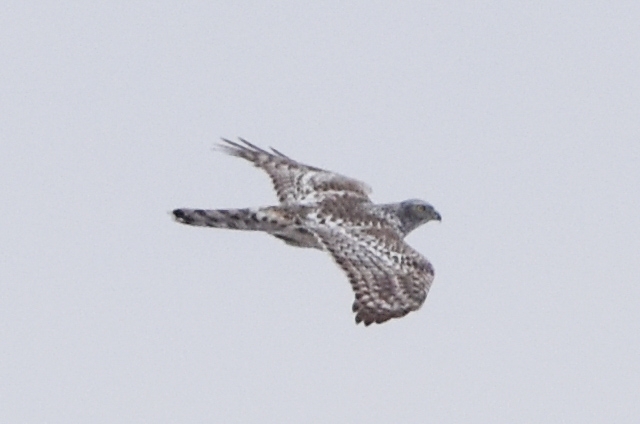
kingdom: Animalia
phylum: Chordata
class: Aves
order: Accipitriformes
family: Accipitridae
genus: Accipiter
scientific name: Accipiter gentilis
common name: Northern goshawk
